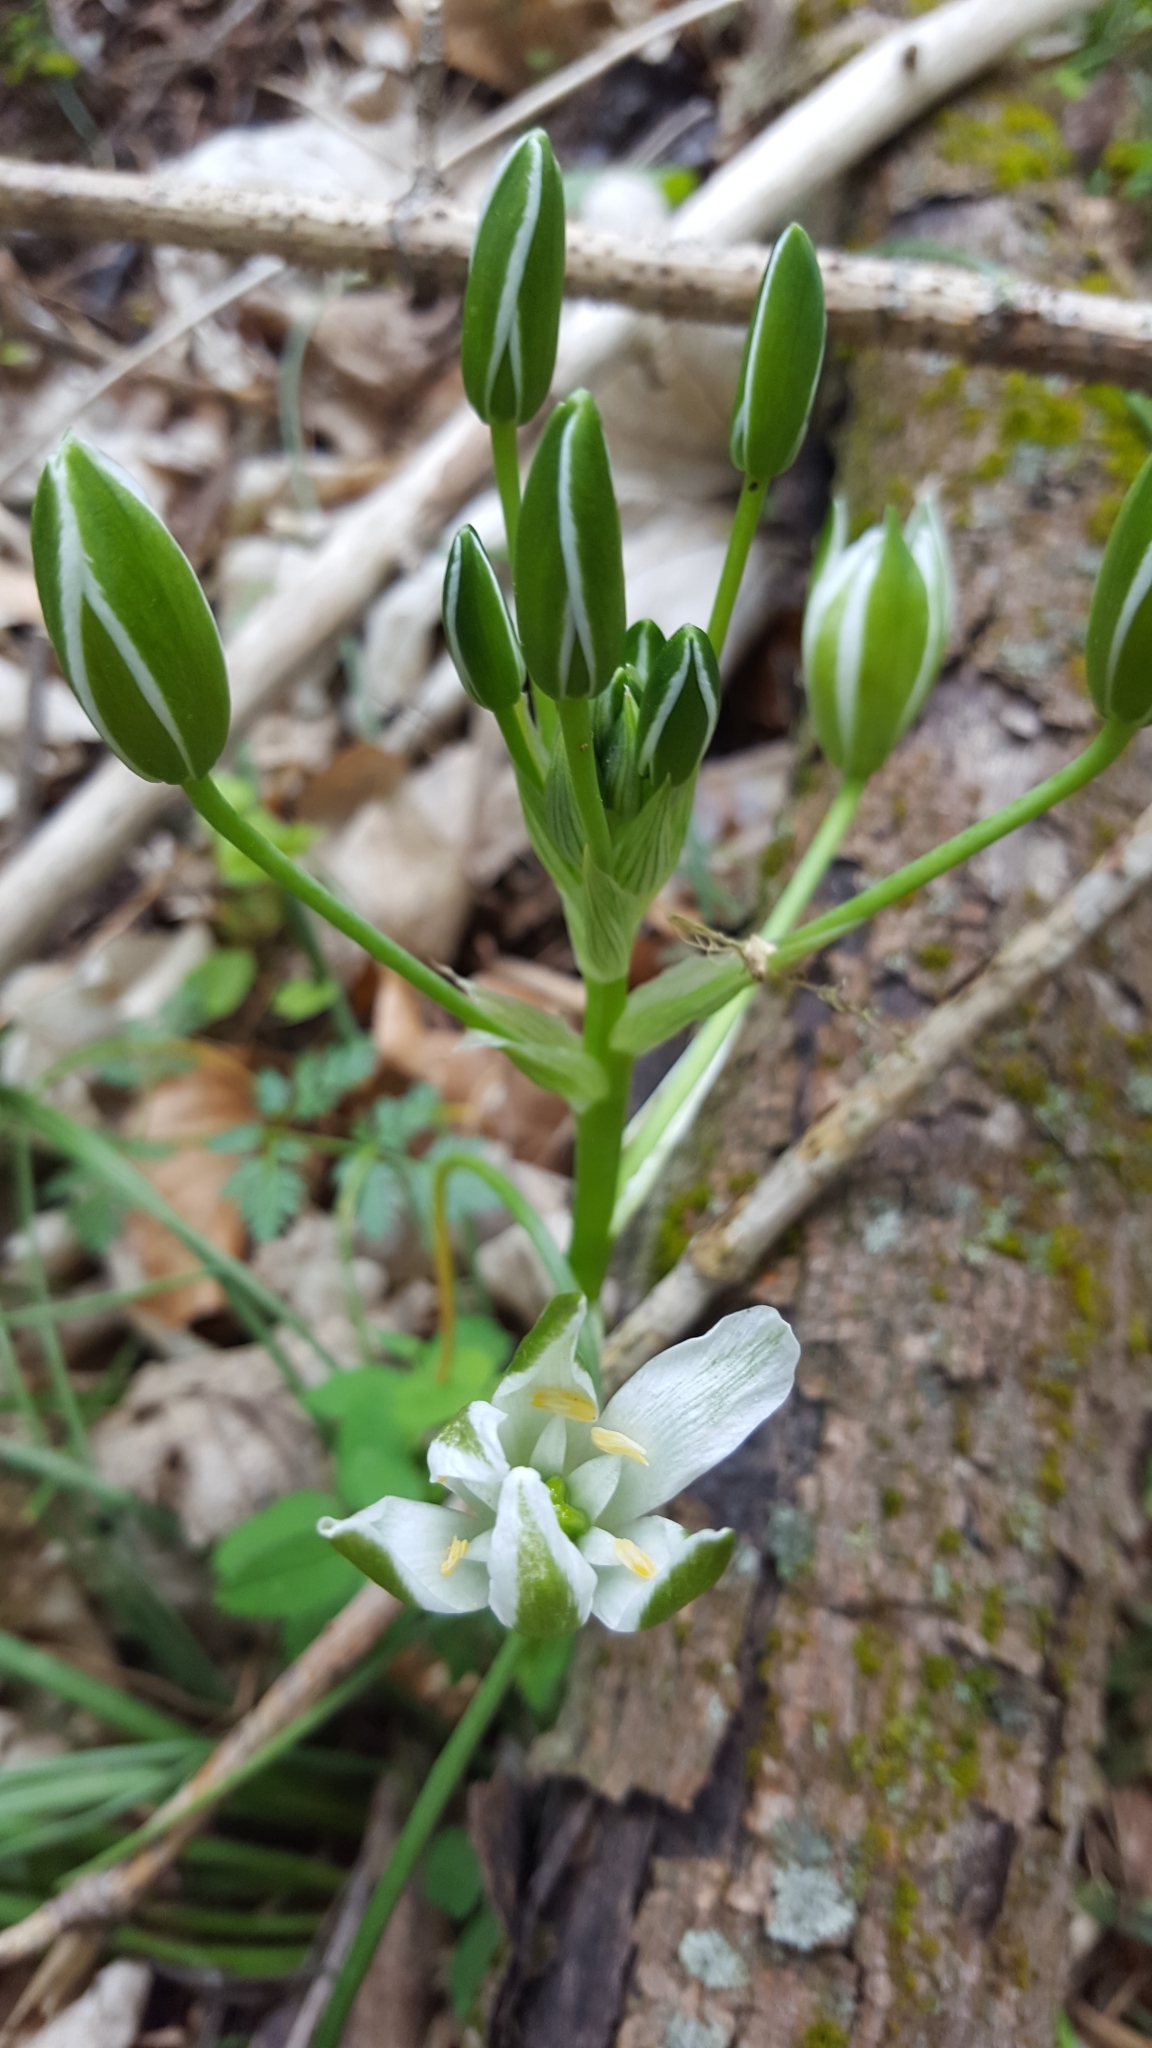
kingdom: Plantae
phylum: Tracheophyta
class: Liliopsida
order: Asparagales
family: Asparagaceae
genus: Ornithogalum
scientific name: Ornithogalum umbellatum
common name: Garden star-of-bethlehem
